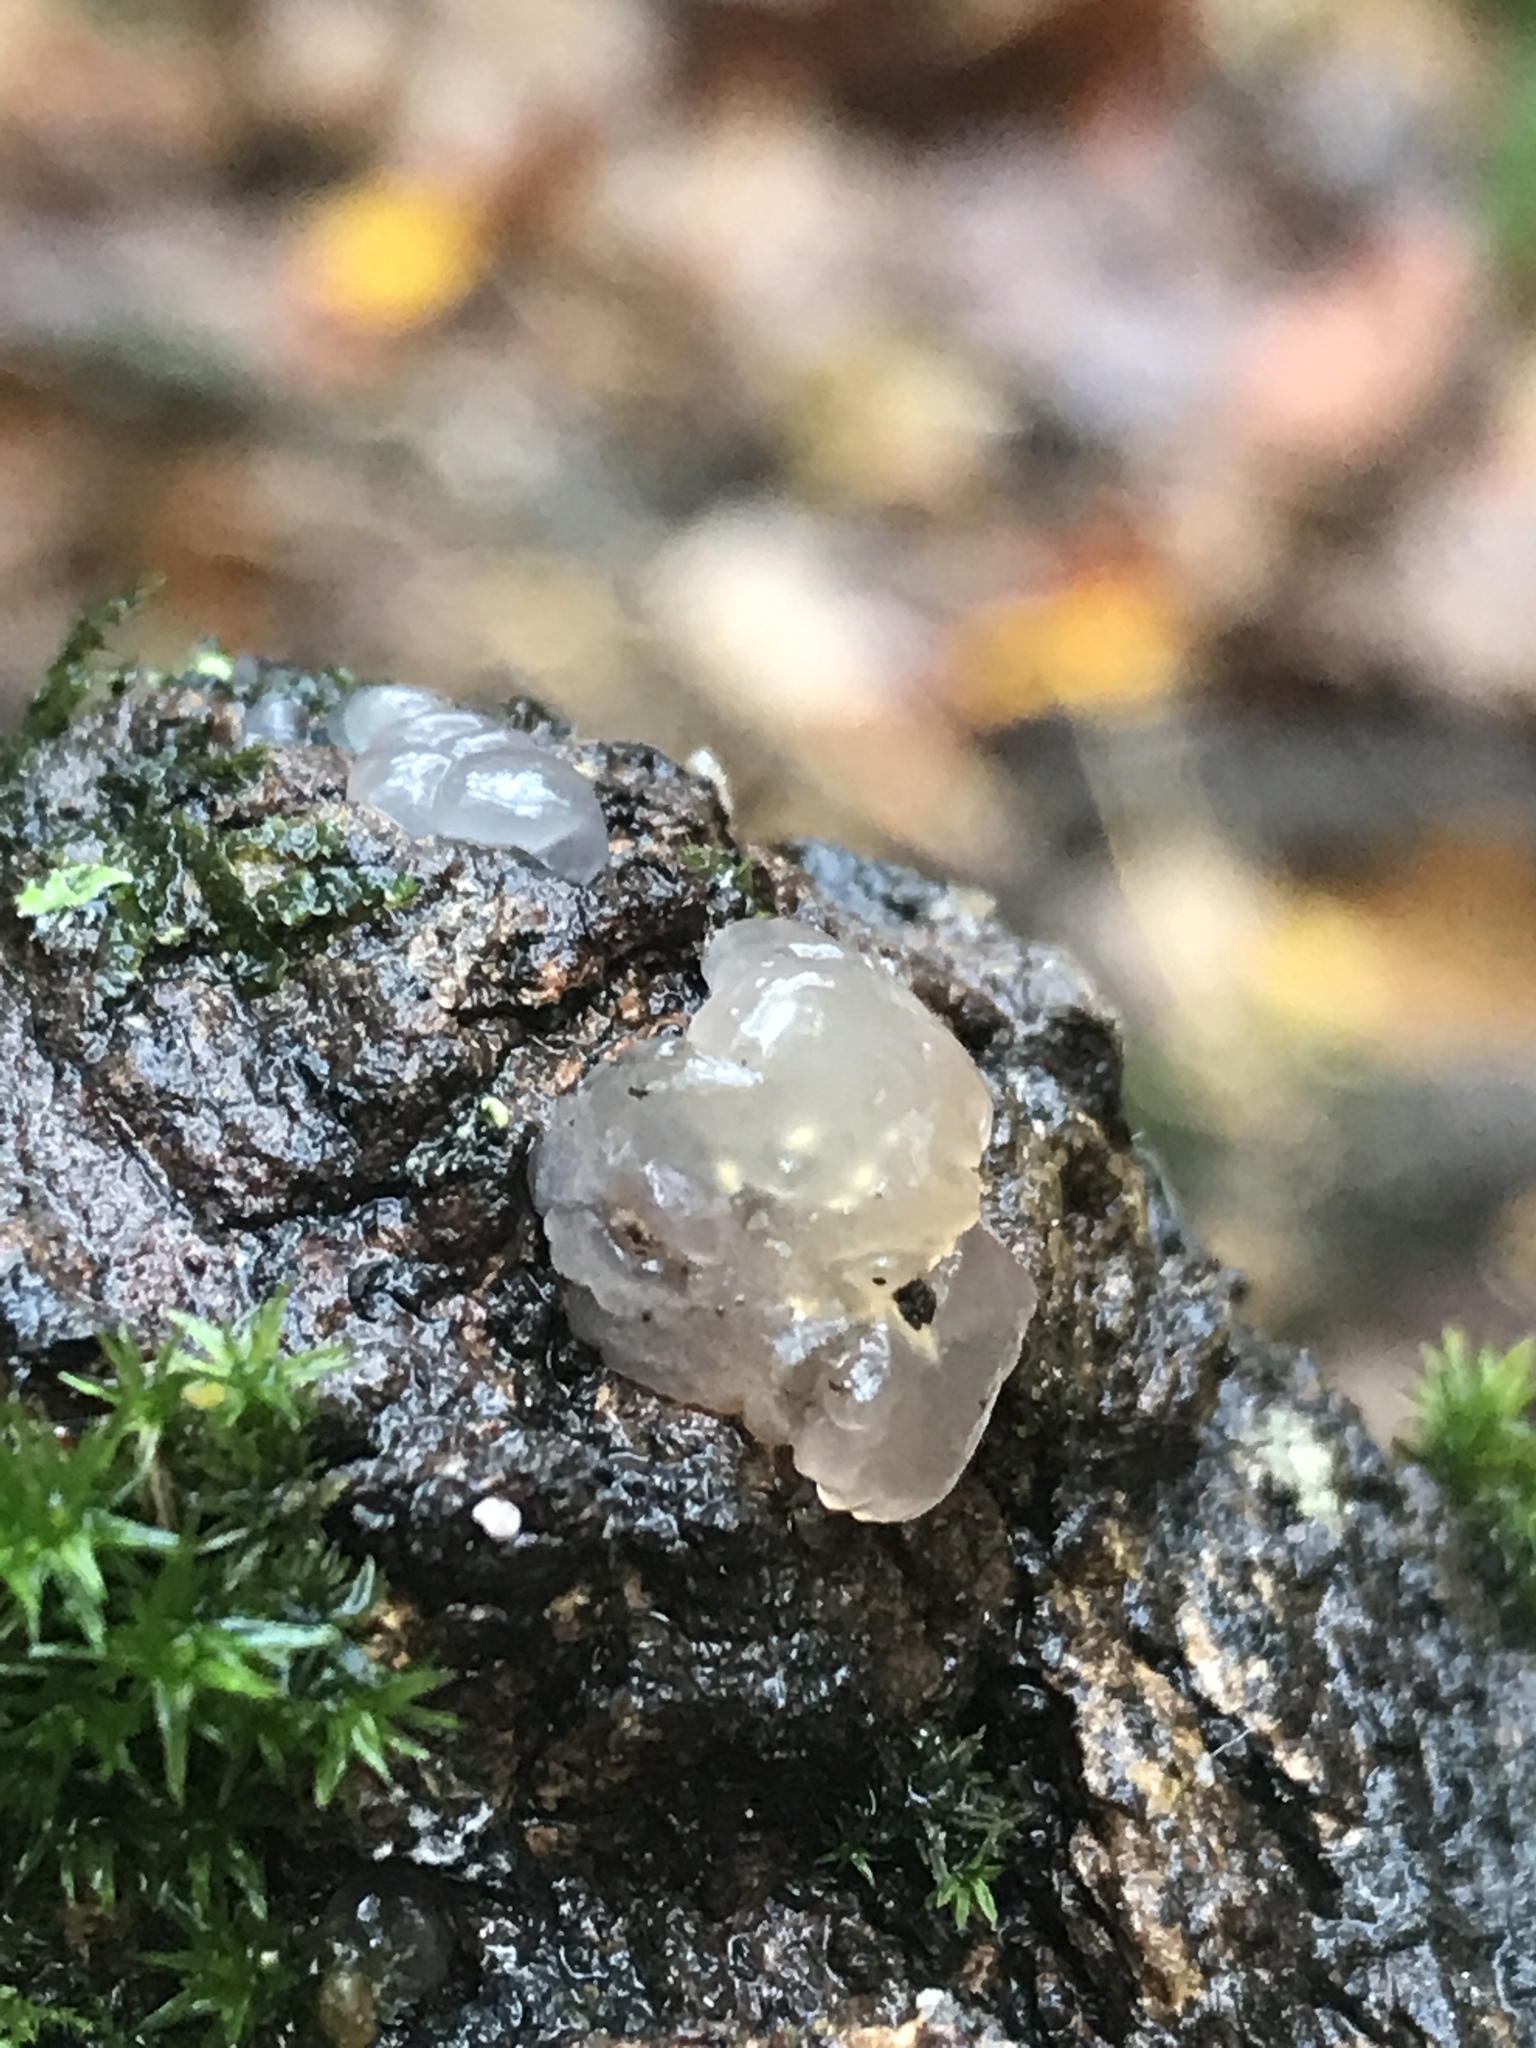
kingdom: Fungi
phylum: Basidiomycota
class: Agaricomycetes
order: Auriculariales
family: Hyaloriaceae
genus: Myxarium
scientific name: Myxarium nucleatum
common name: Crystal brain fungus
